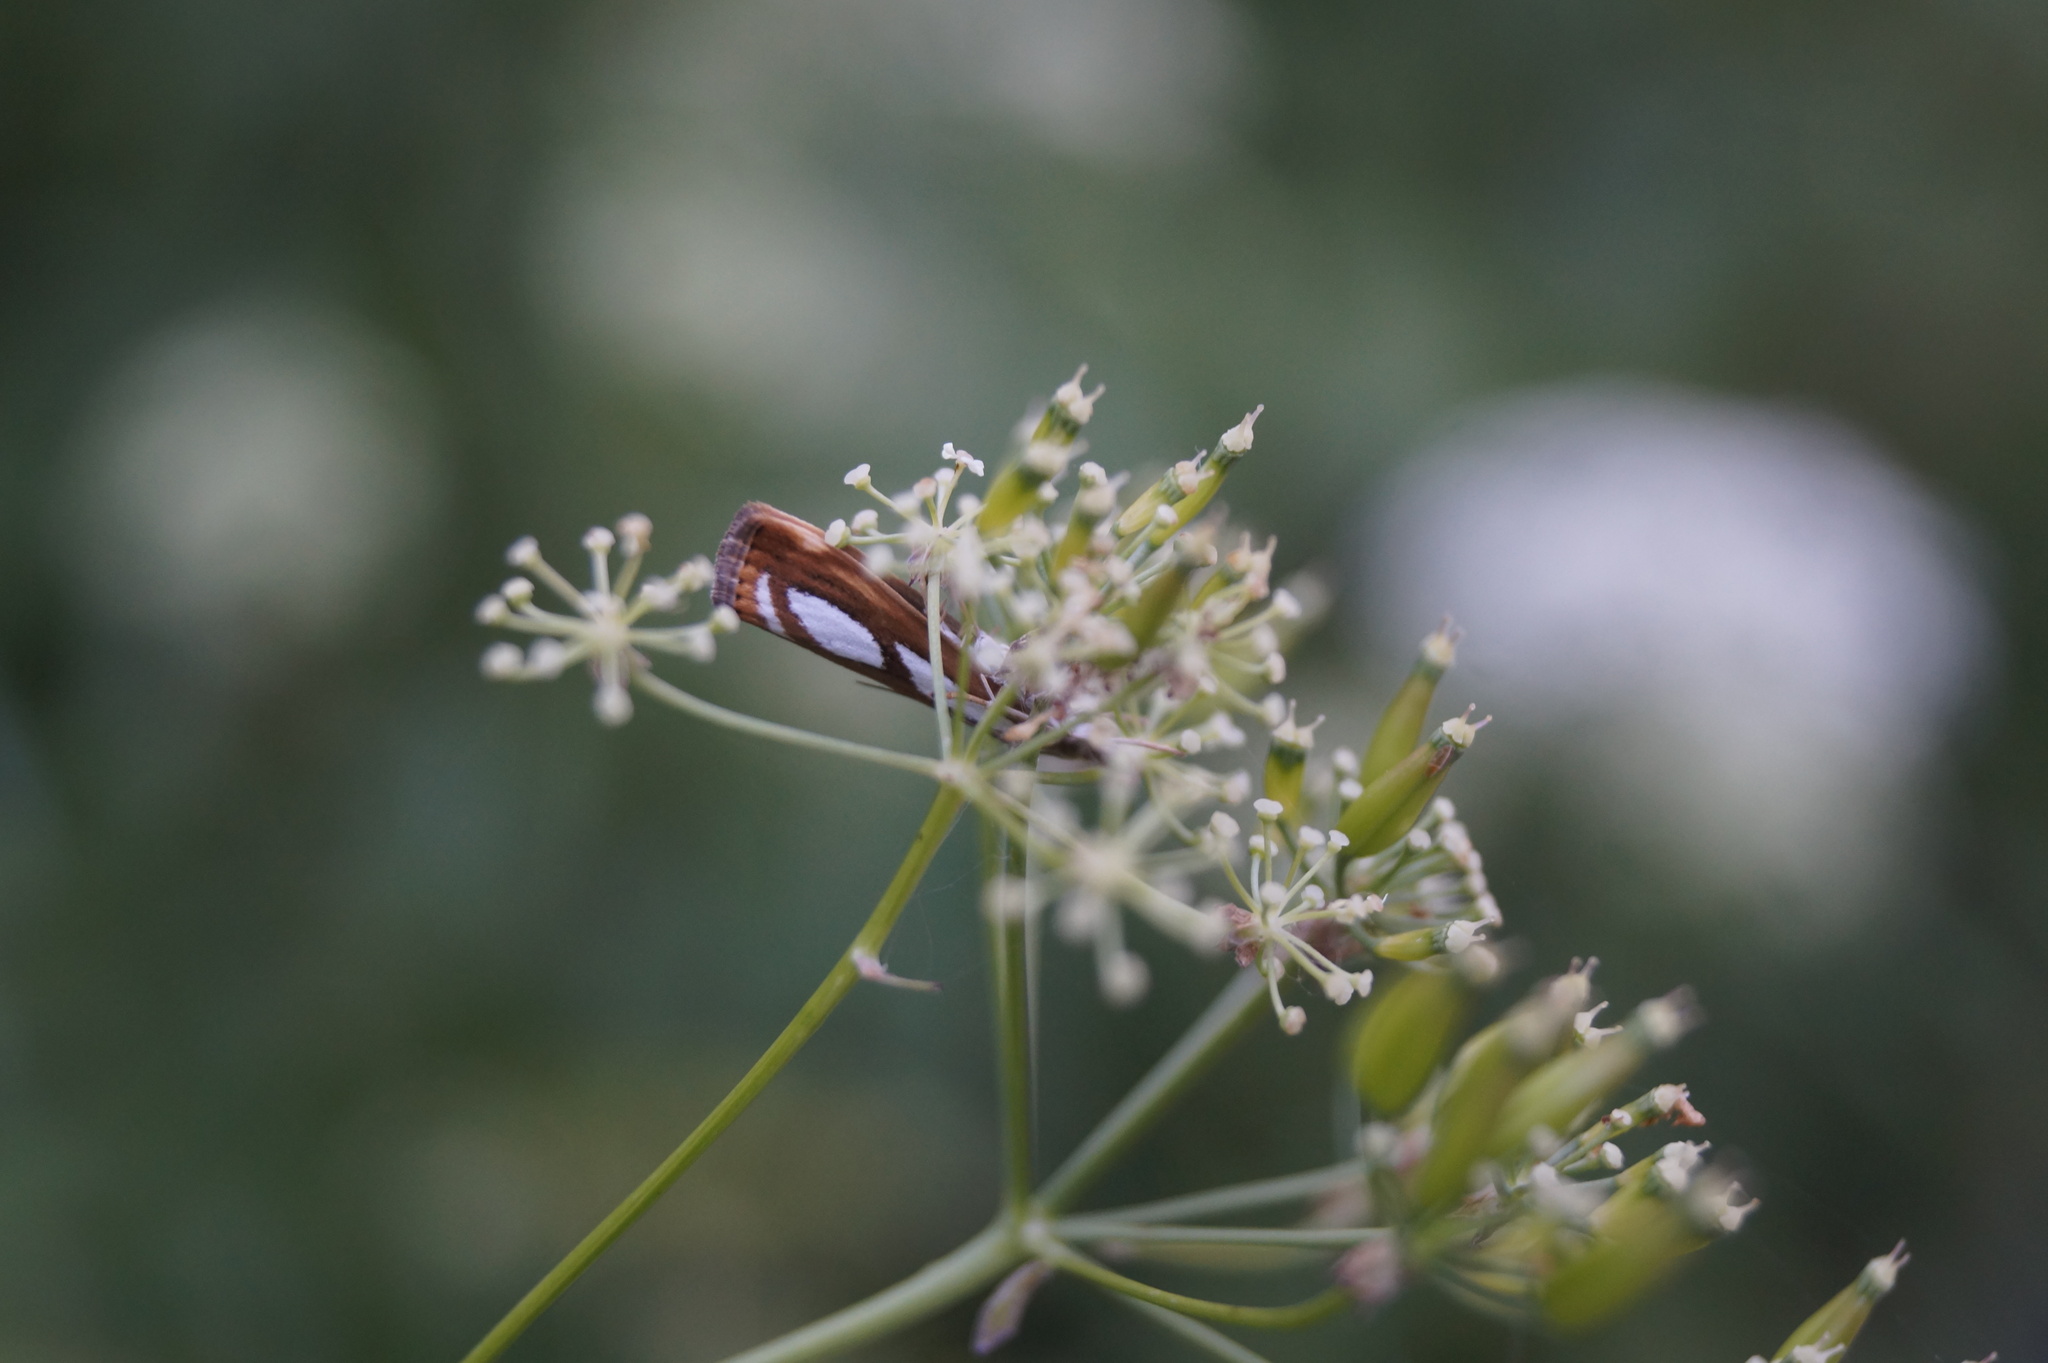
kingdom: Animalia
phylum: Arthropoda
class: Insecta
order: Lepidoptera
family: Crambidae
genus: Catoptria
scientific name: Catoptria
